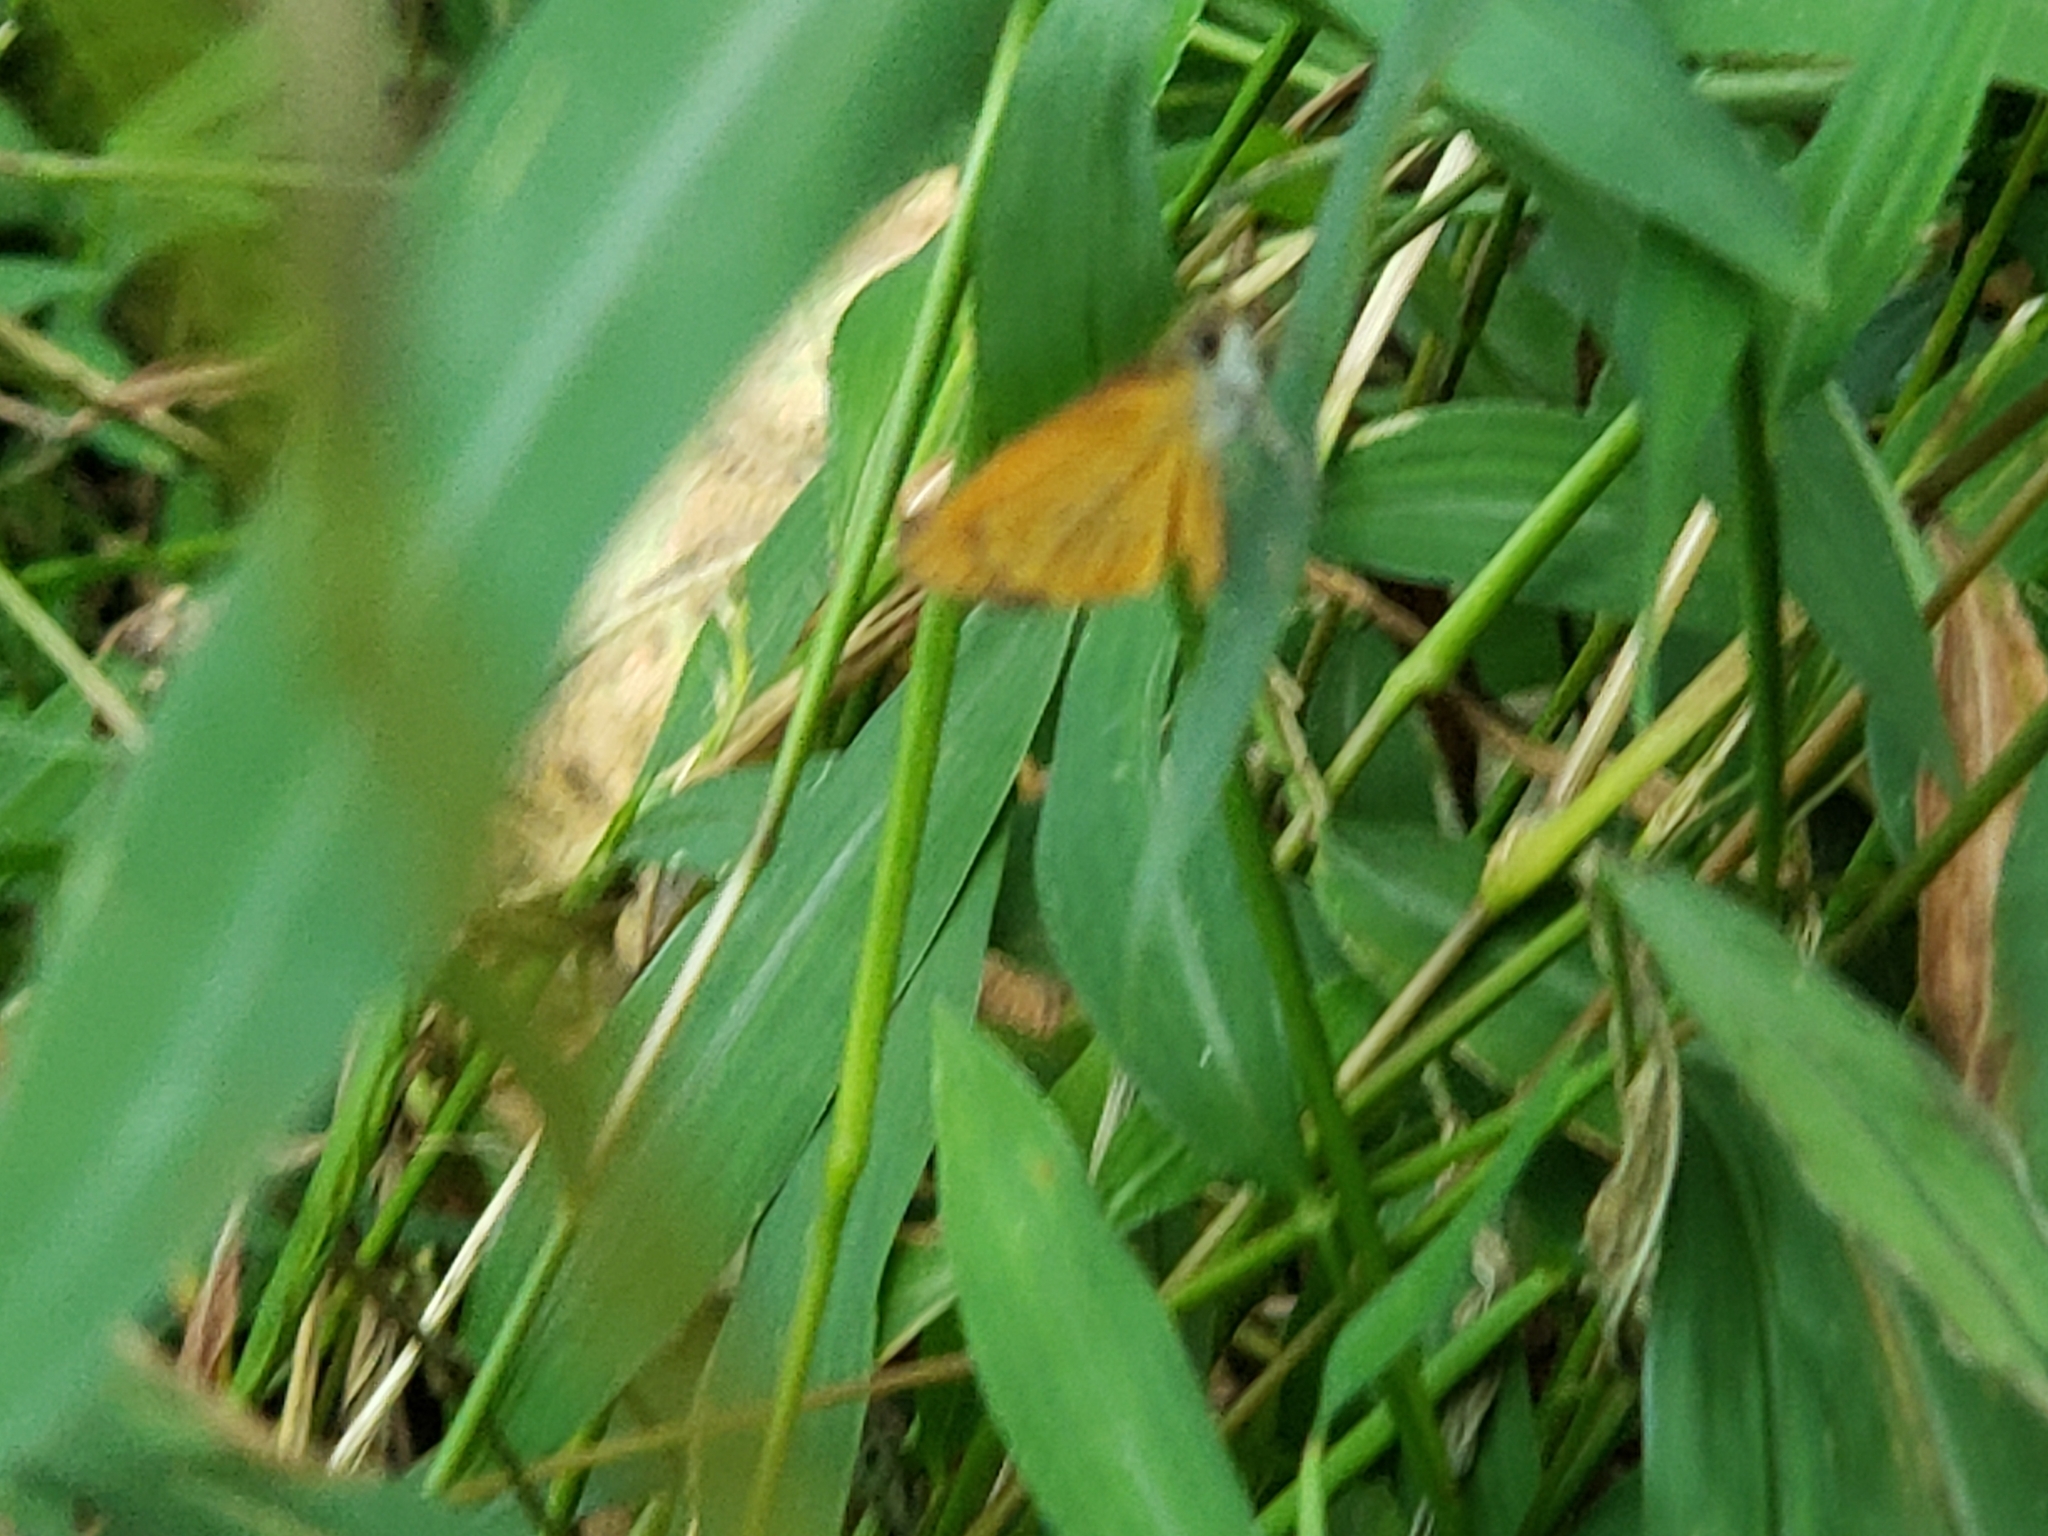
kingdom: Animalia
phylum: Arthropoda
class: Insecta
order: Lepidoptera
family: Hesperiidae
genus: Ancyloxypha
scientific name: Ancyloxypha numitor
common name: Least skipper
